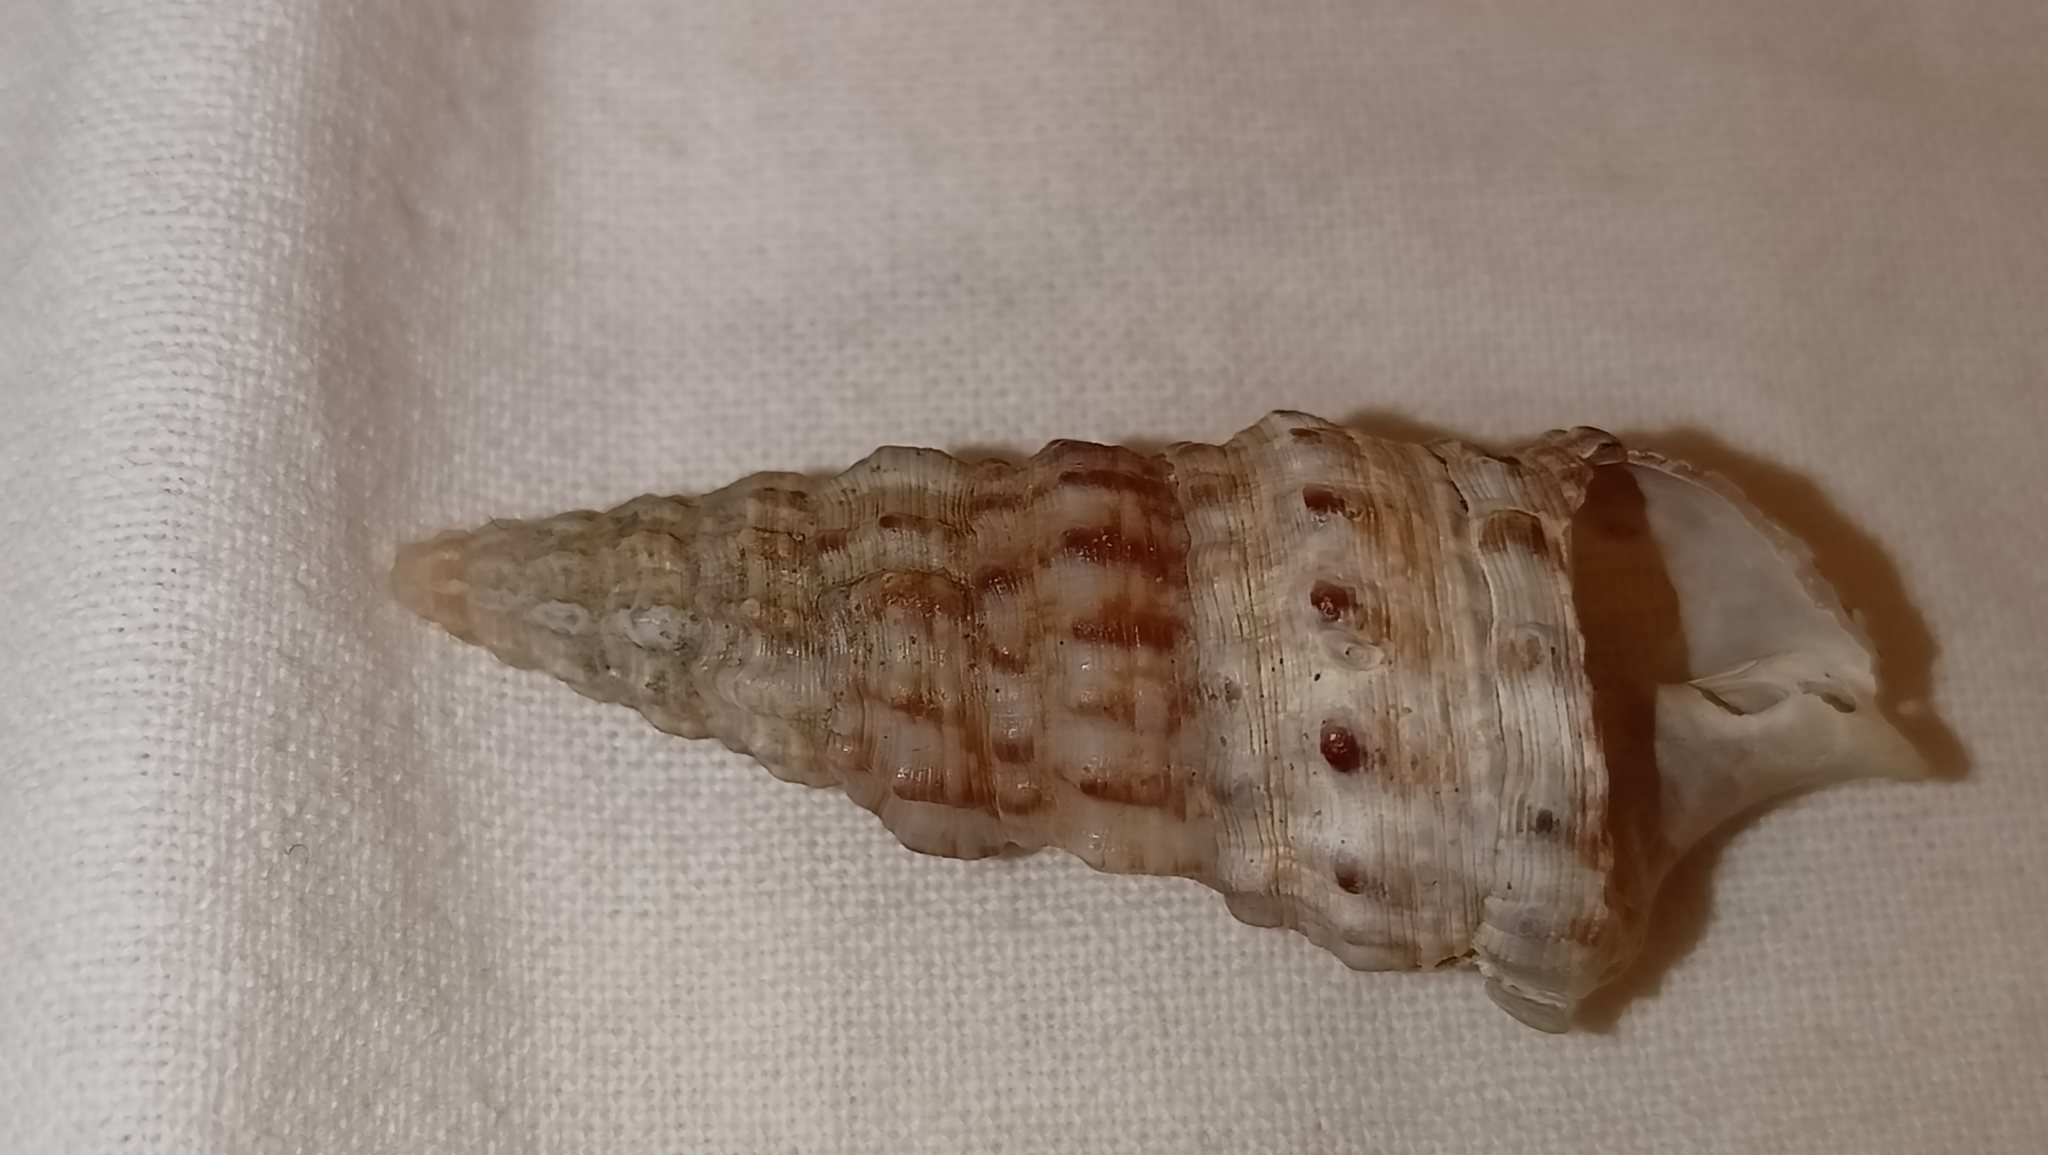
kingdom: Animalia
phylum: Mollusca
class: Gastropoda
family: Cerithiidae
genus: Cerithium
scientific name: Cerithium vulgatum
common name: European cerith
